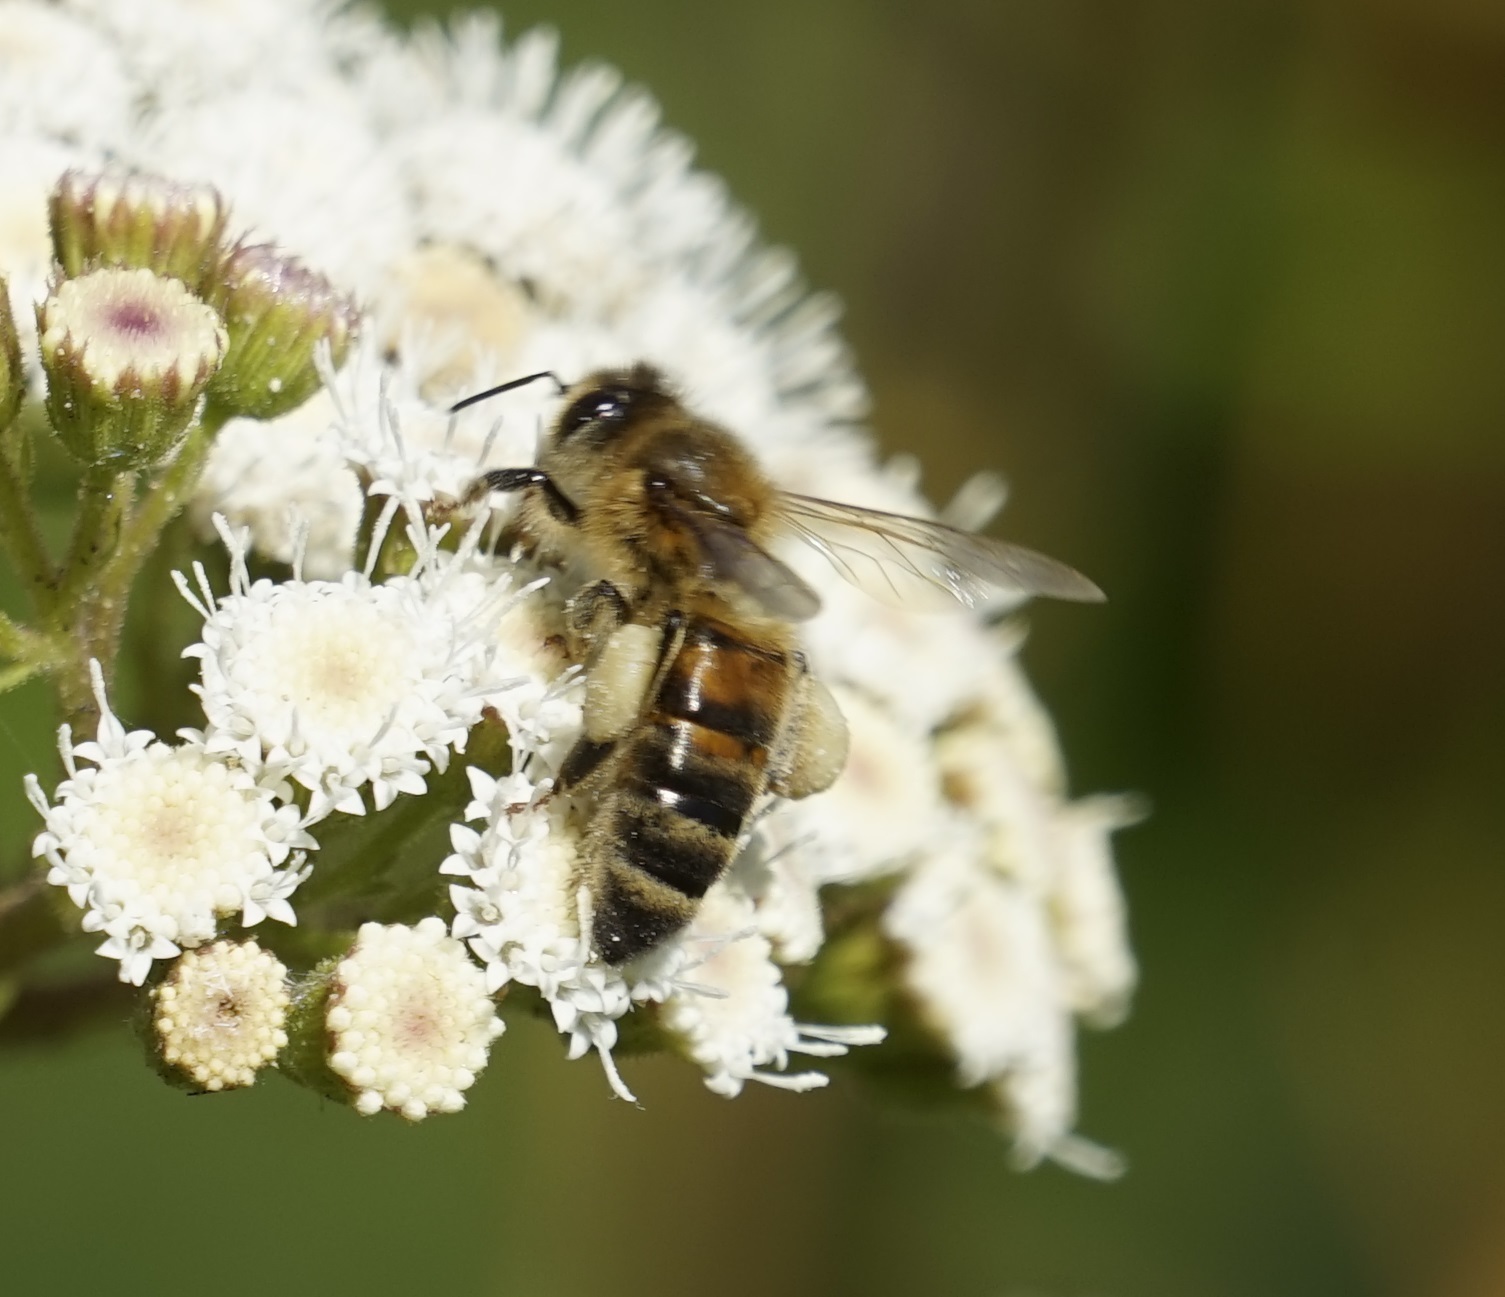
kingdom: Animalia
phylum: Arthropoda
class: Insecta
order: Hymenoptera
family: Apidae
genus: Apis
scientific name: Apis mellifera
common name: Honey bee
